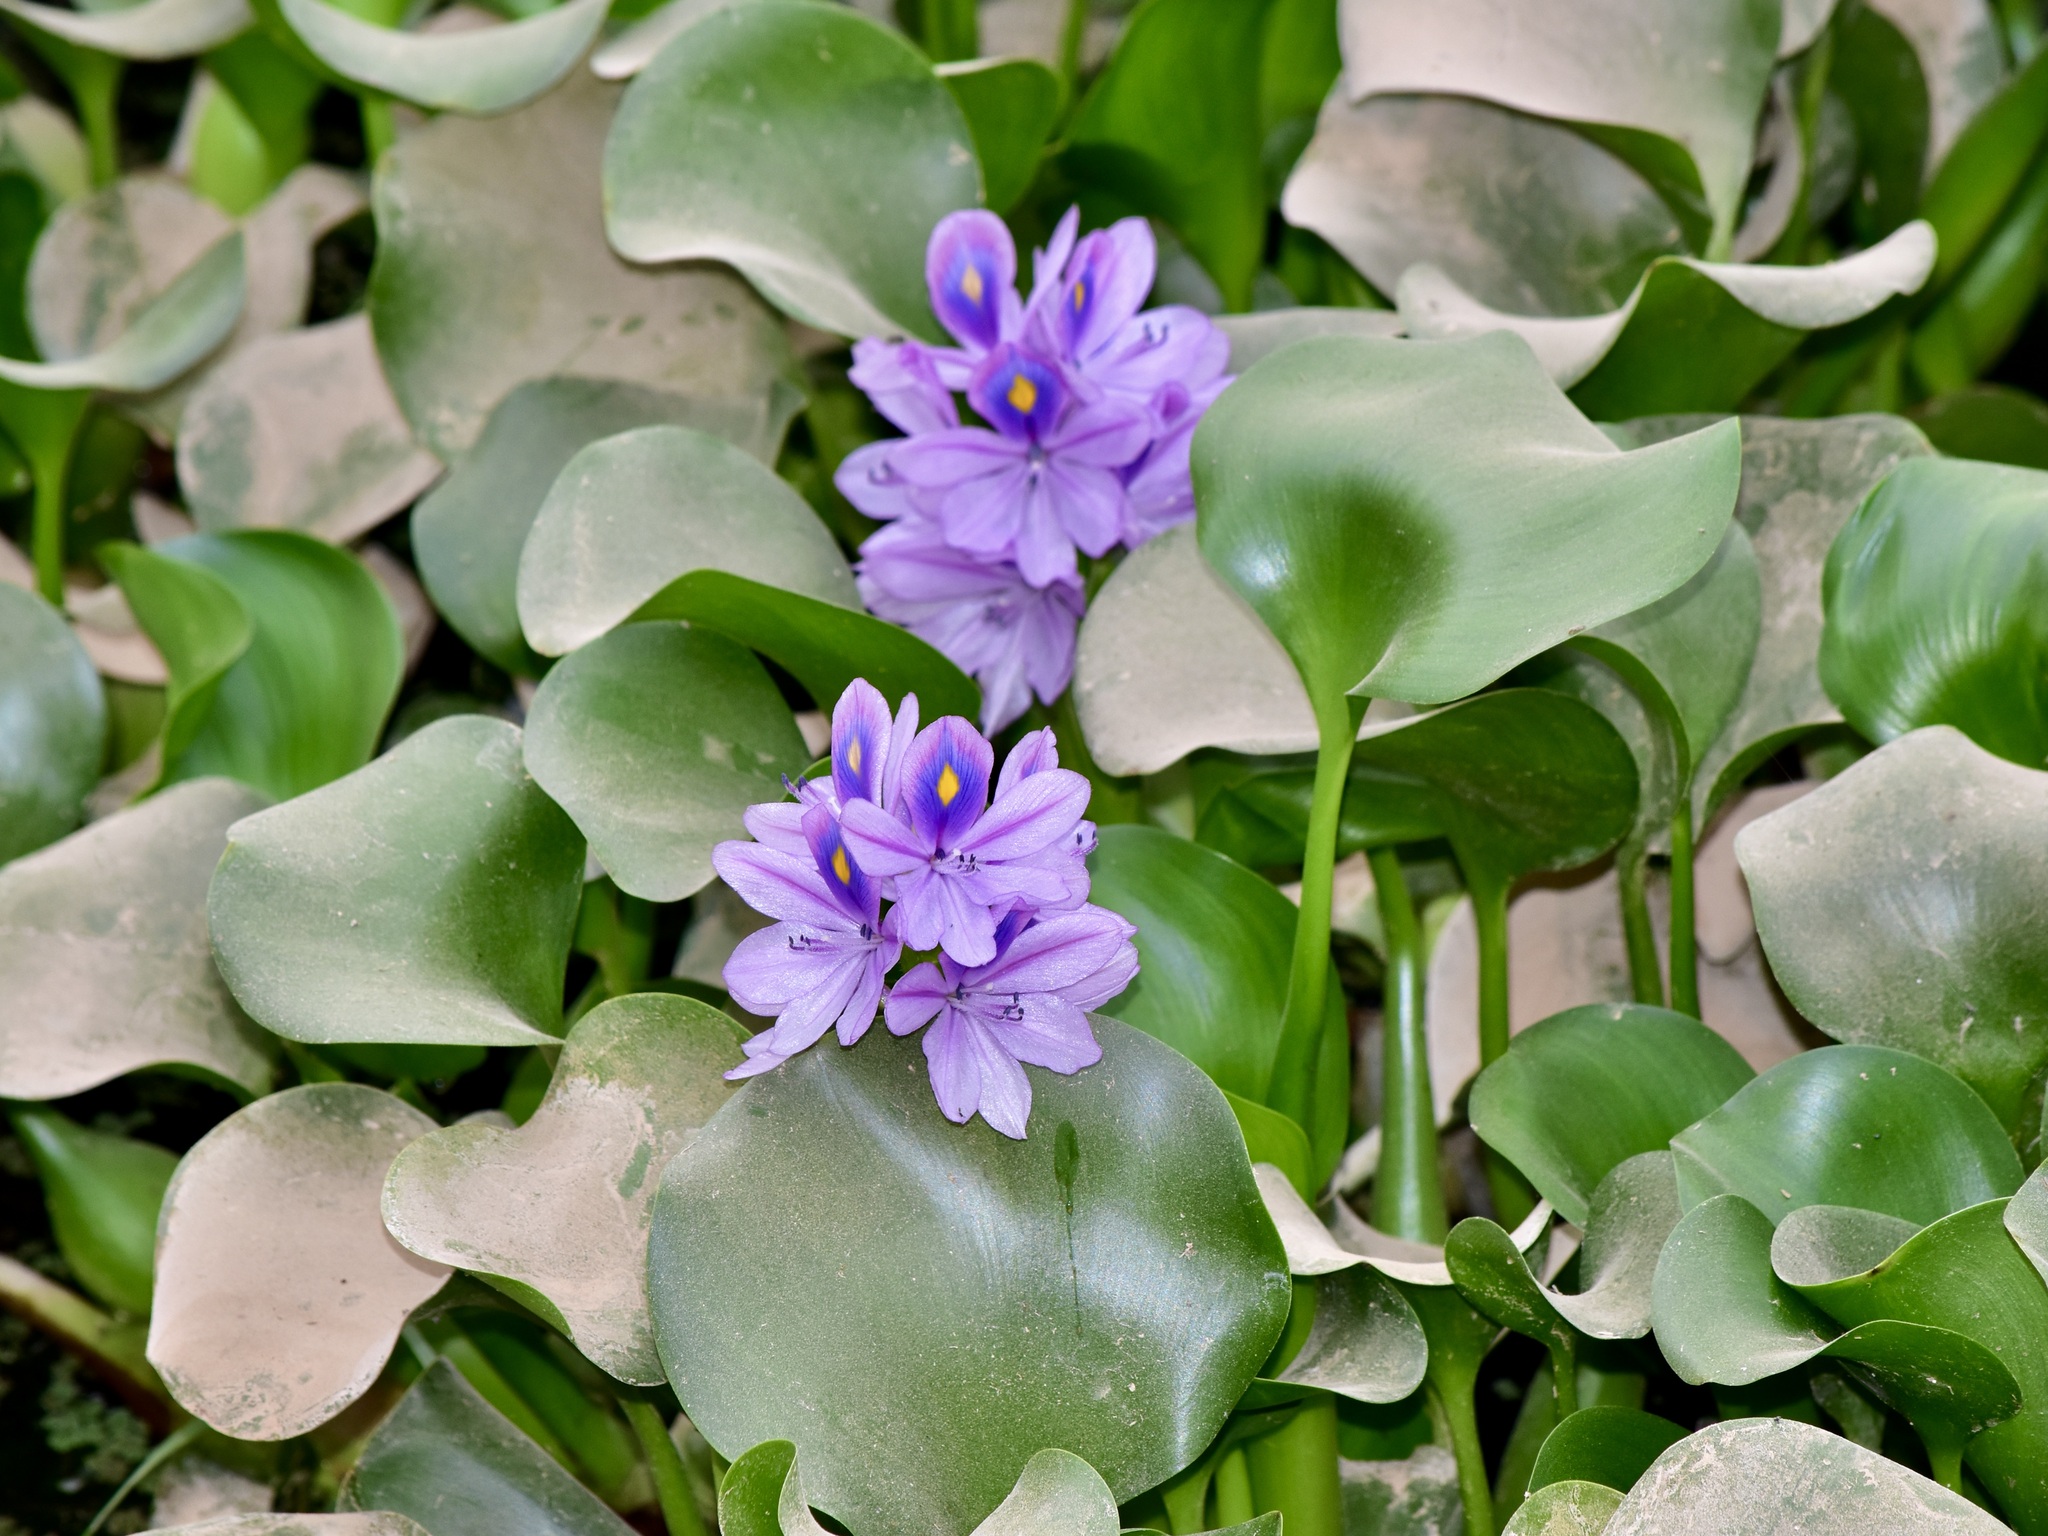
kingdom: Plantae
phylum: Tracheophyta
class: Liliopsida
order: Commelinales
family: Pontederiaceae
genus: Pontederia
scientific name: Pontederia crassipes
